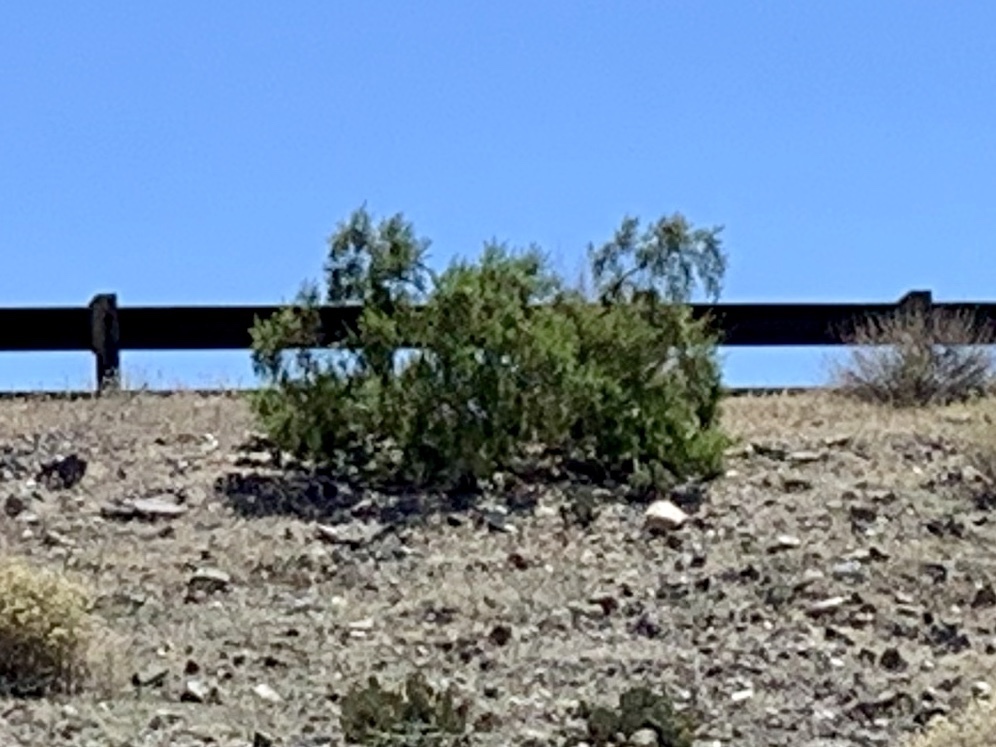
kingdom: Plantae
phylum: Tracheophyta
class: Magnoliopsida
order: Zygophyllales
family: Zygophyllaceae
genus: Larrea
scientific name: Larrea tridentata
